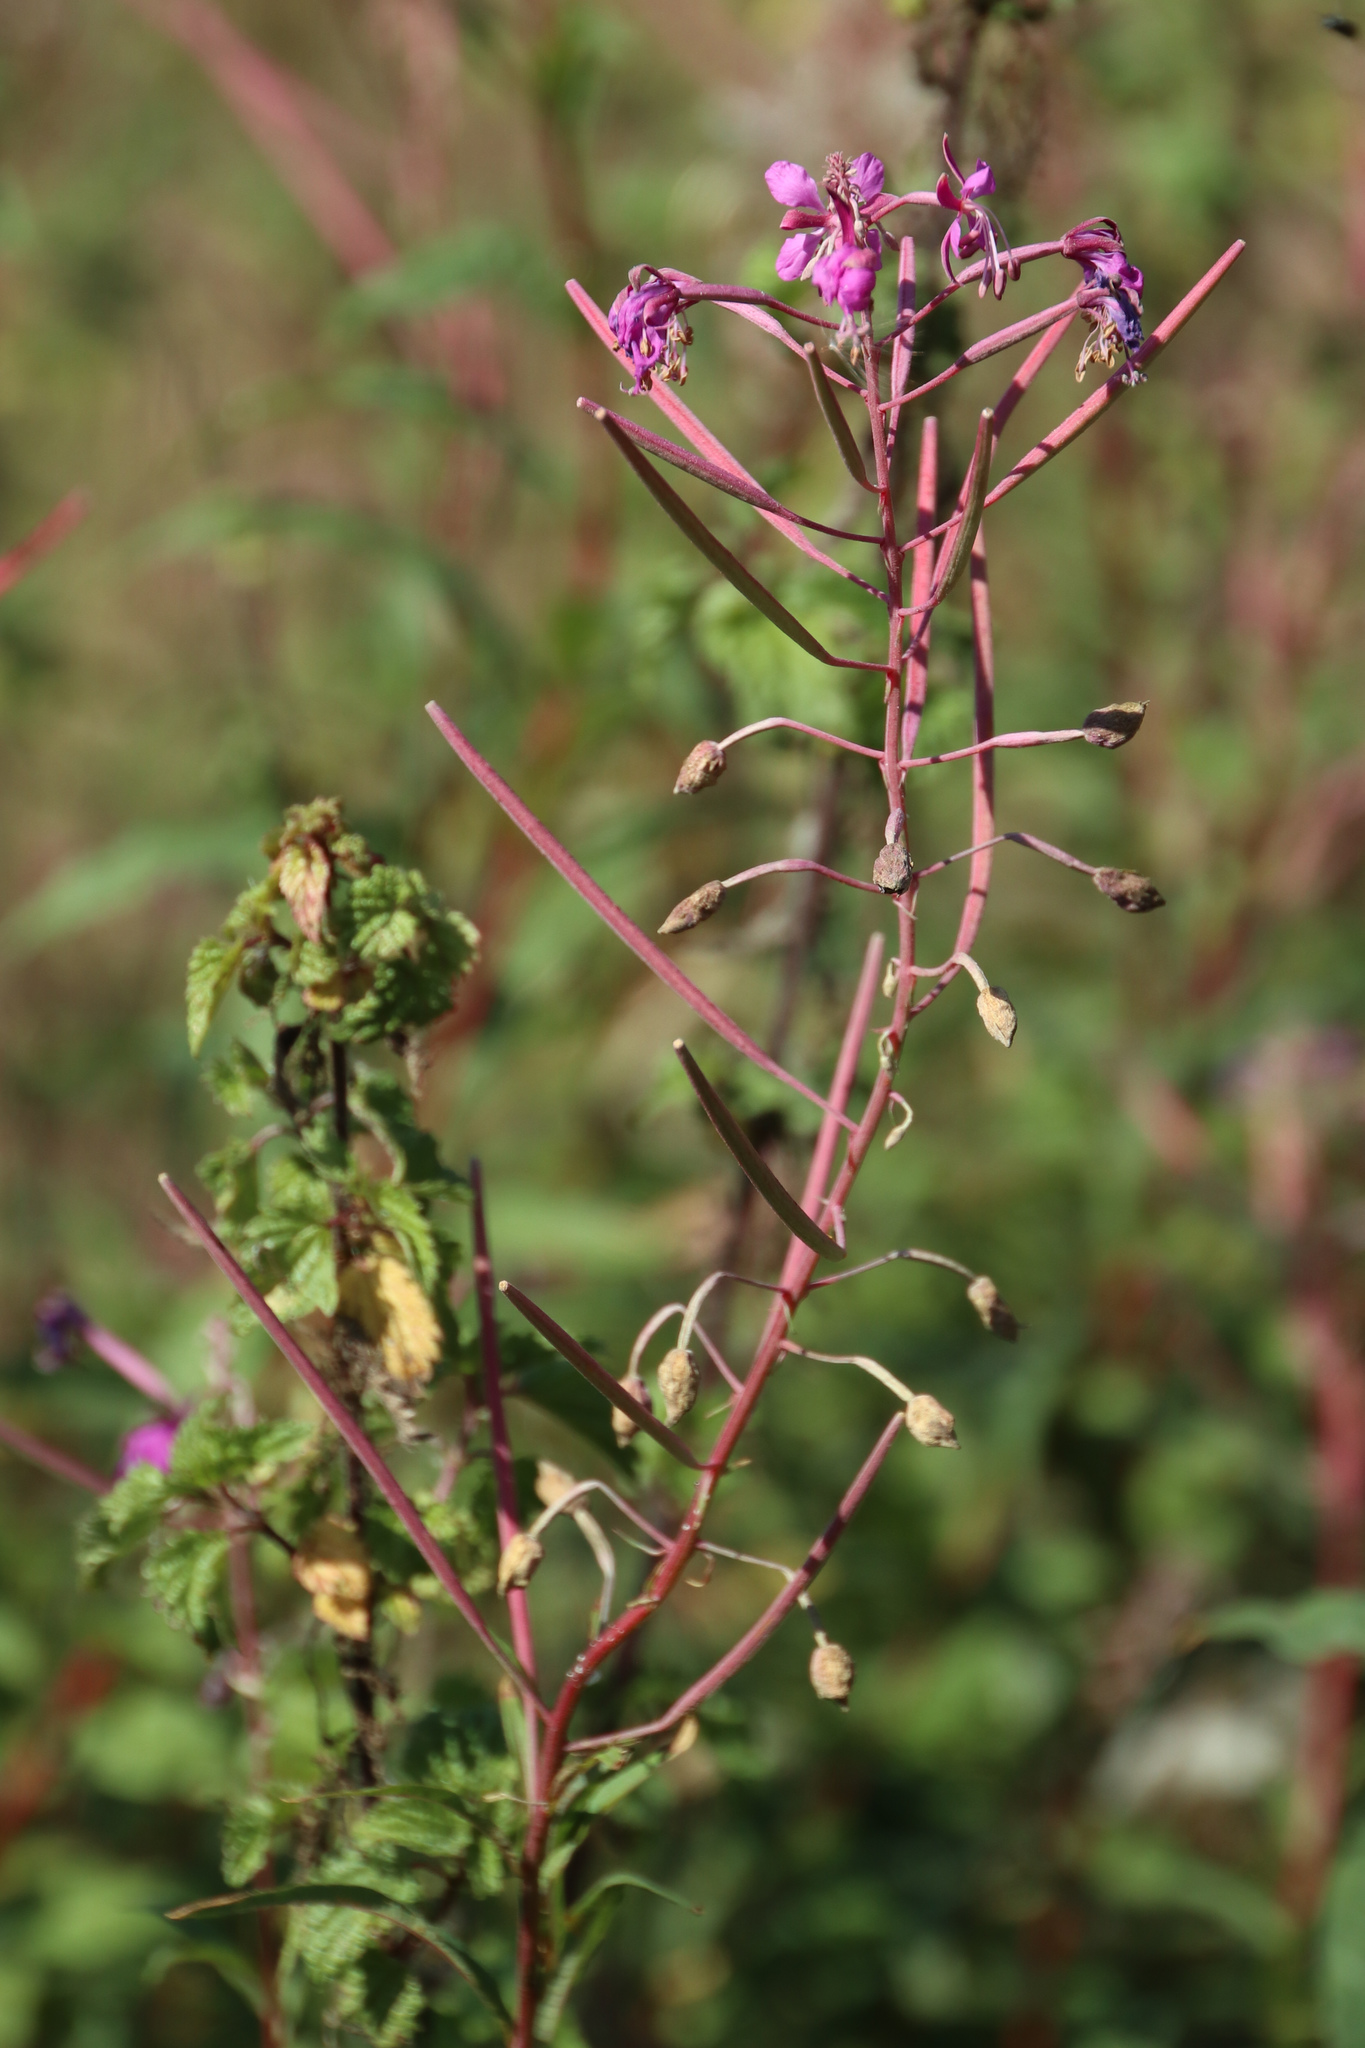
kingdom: Plantae
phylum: Tracheophyta
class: Magnoliopsida
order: Myrtales
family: Onagraceae
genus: Chamaenerion
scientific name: Chamaenerion angustifolium
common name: Fireweed
